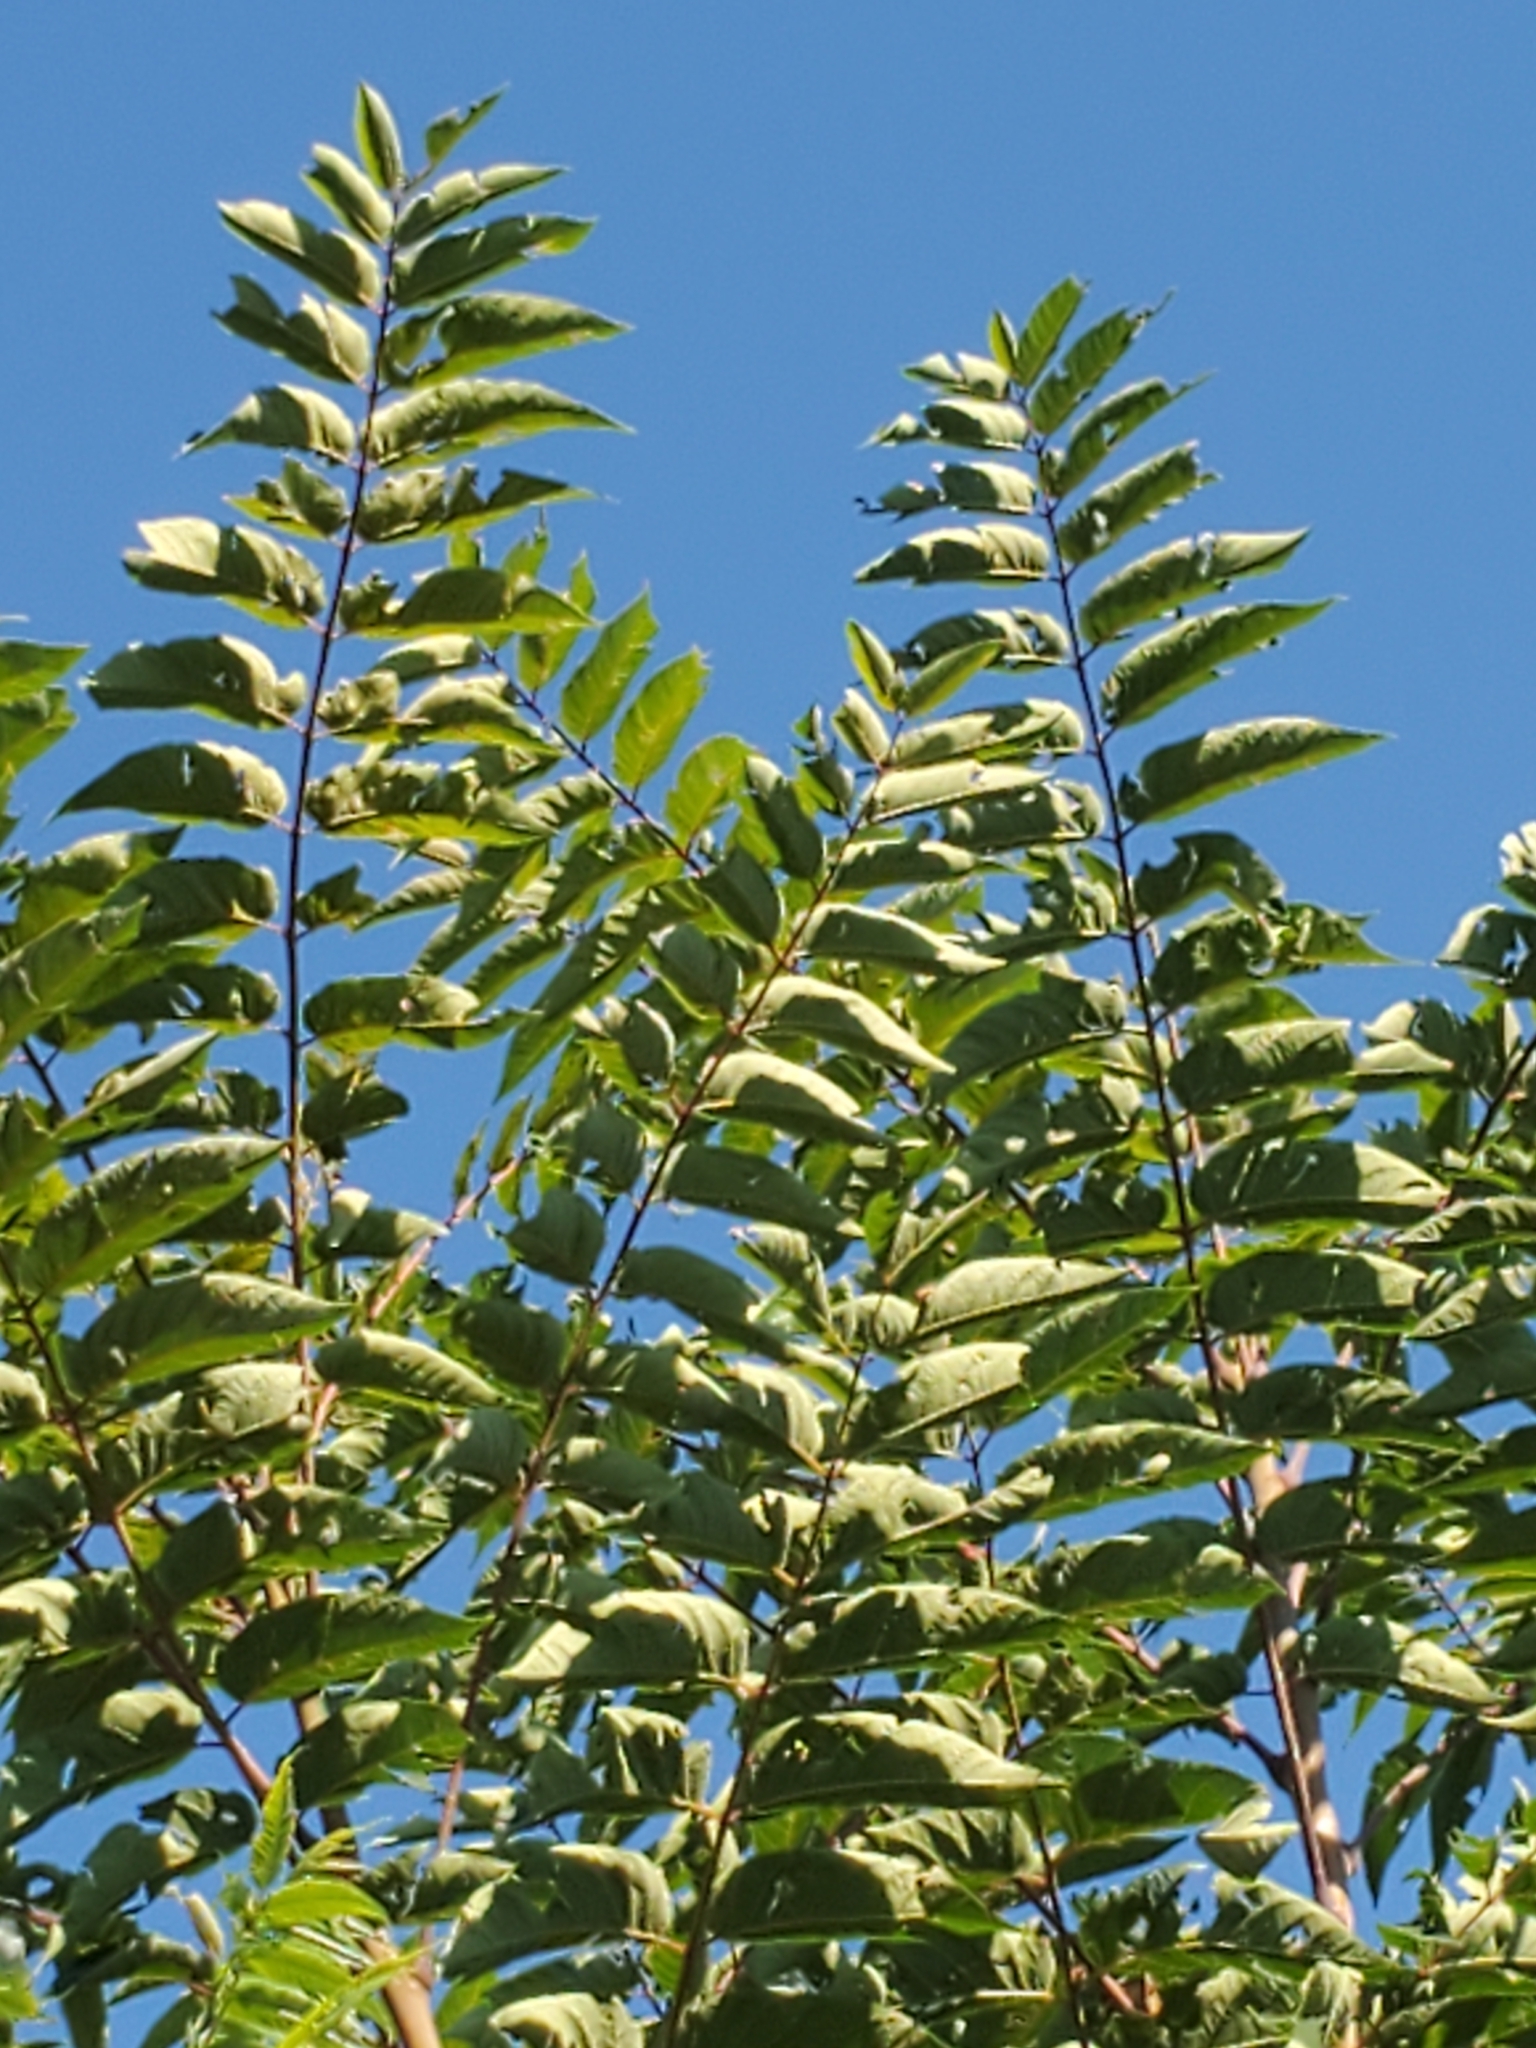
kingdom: Plantae
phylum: Tracheophyta
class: Magnoliopsida
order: Sapindales
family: Simaroubaceae
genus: Ailanthus
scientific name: Ailanthus altissima
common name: Tree-of-heaven
